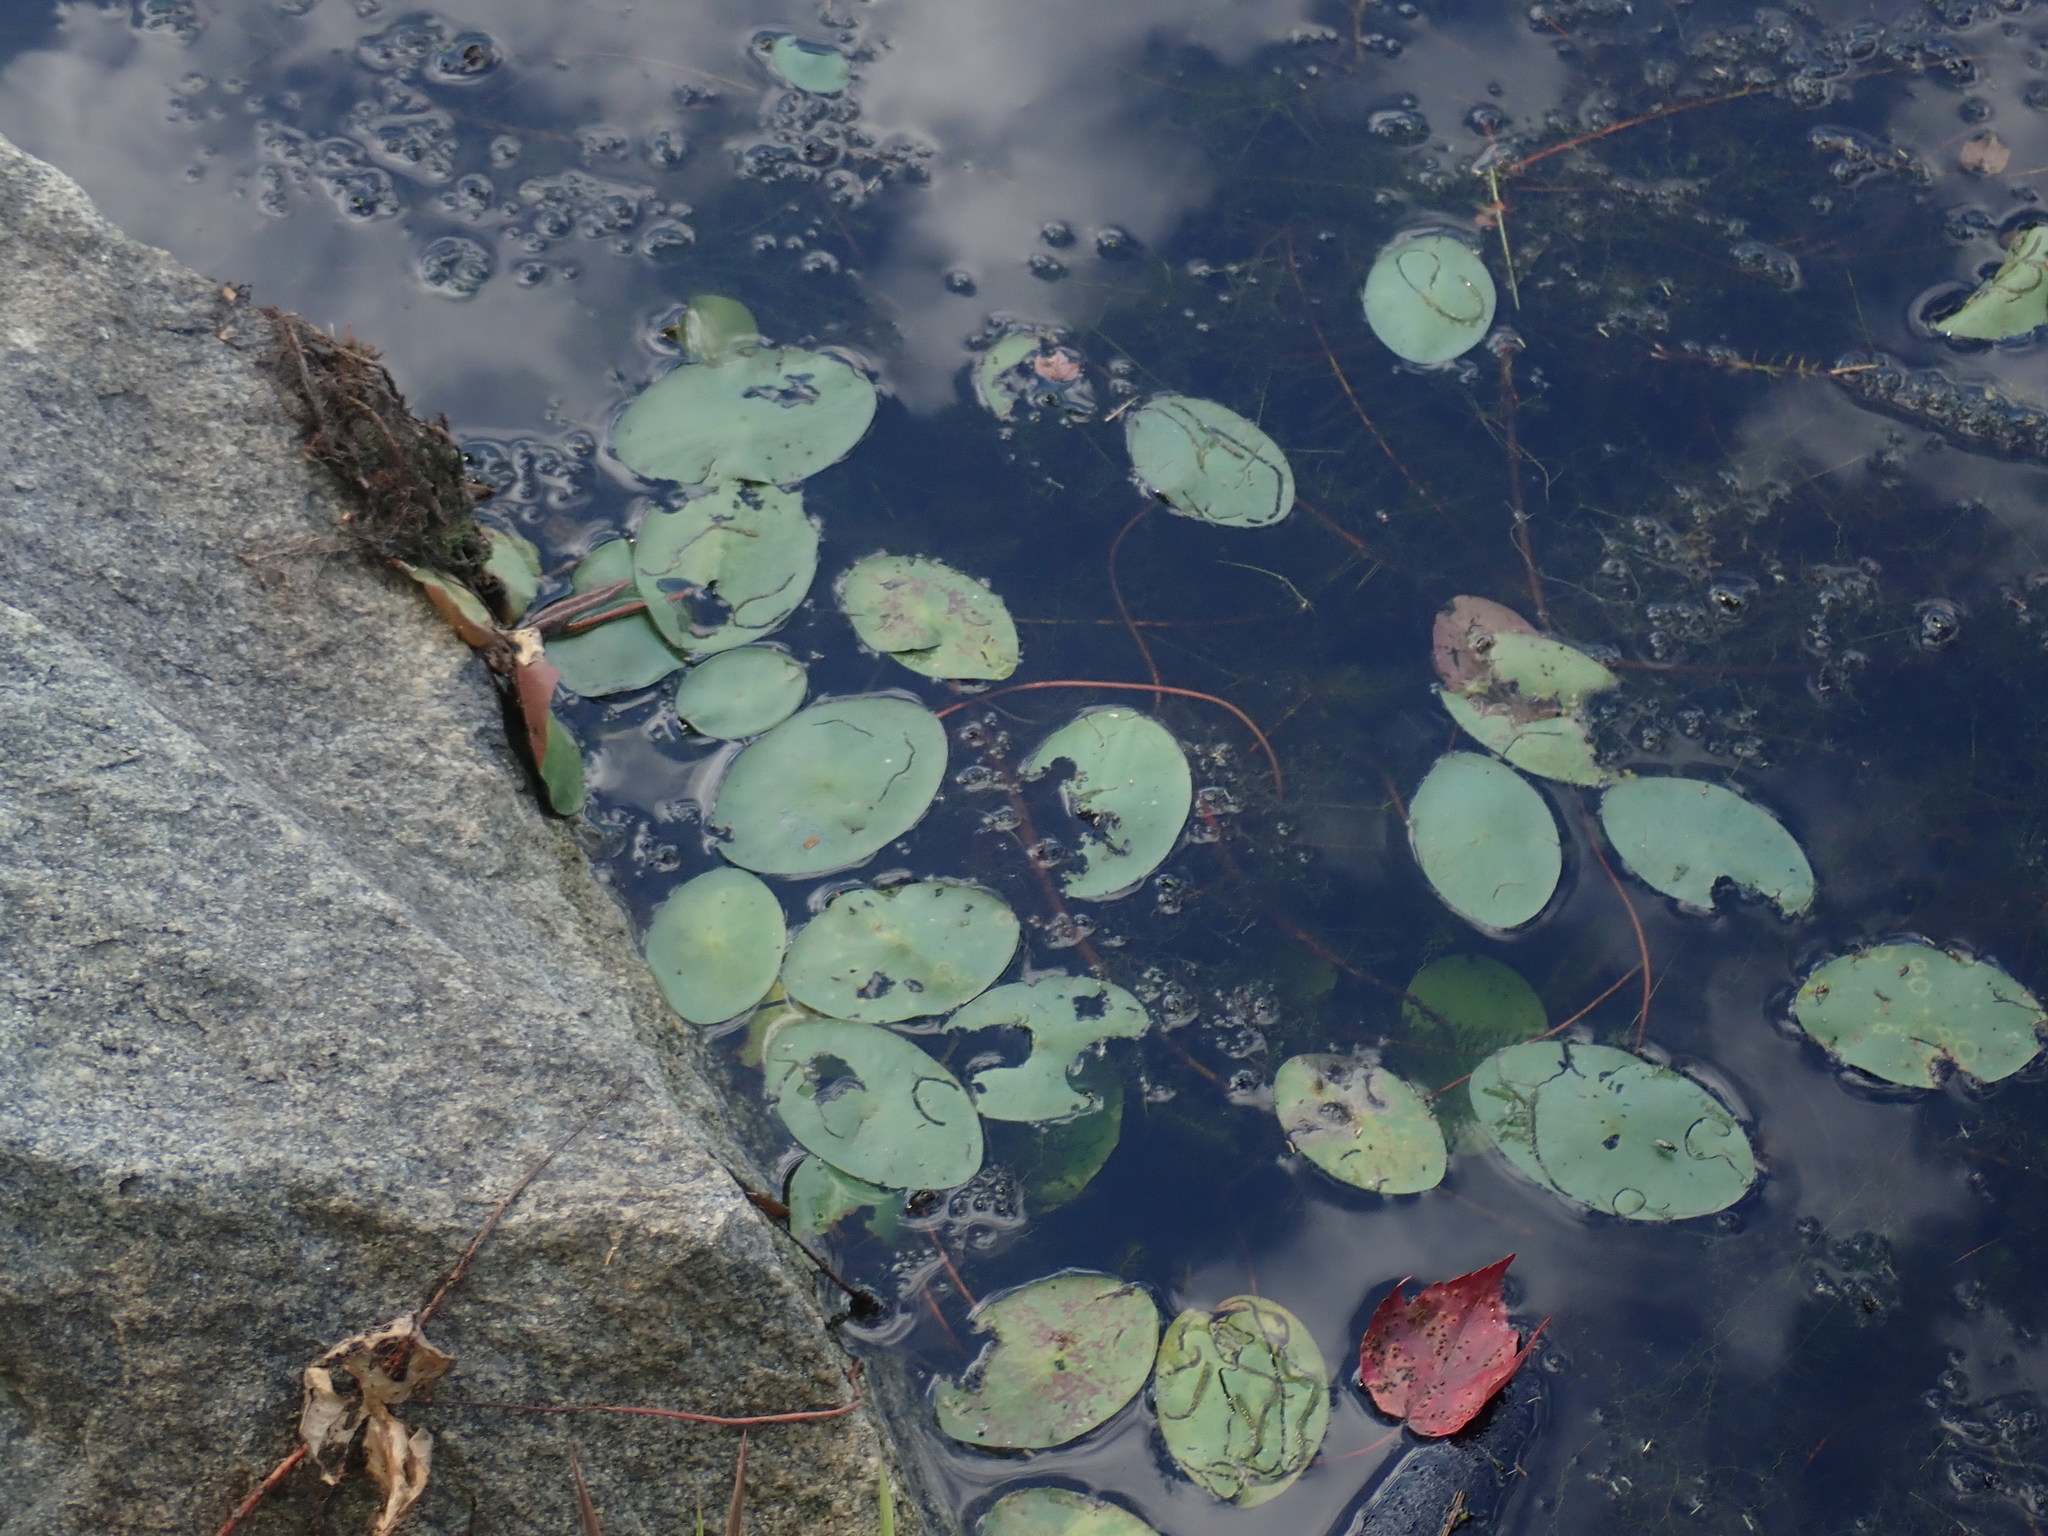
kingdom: Plantae
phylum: Tracheophyta
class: Magnoliopsida
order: Nymphaeales
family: Cabombaceae
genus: Brasenia
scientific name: Brasenia schreberi
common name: Water-shield
